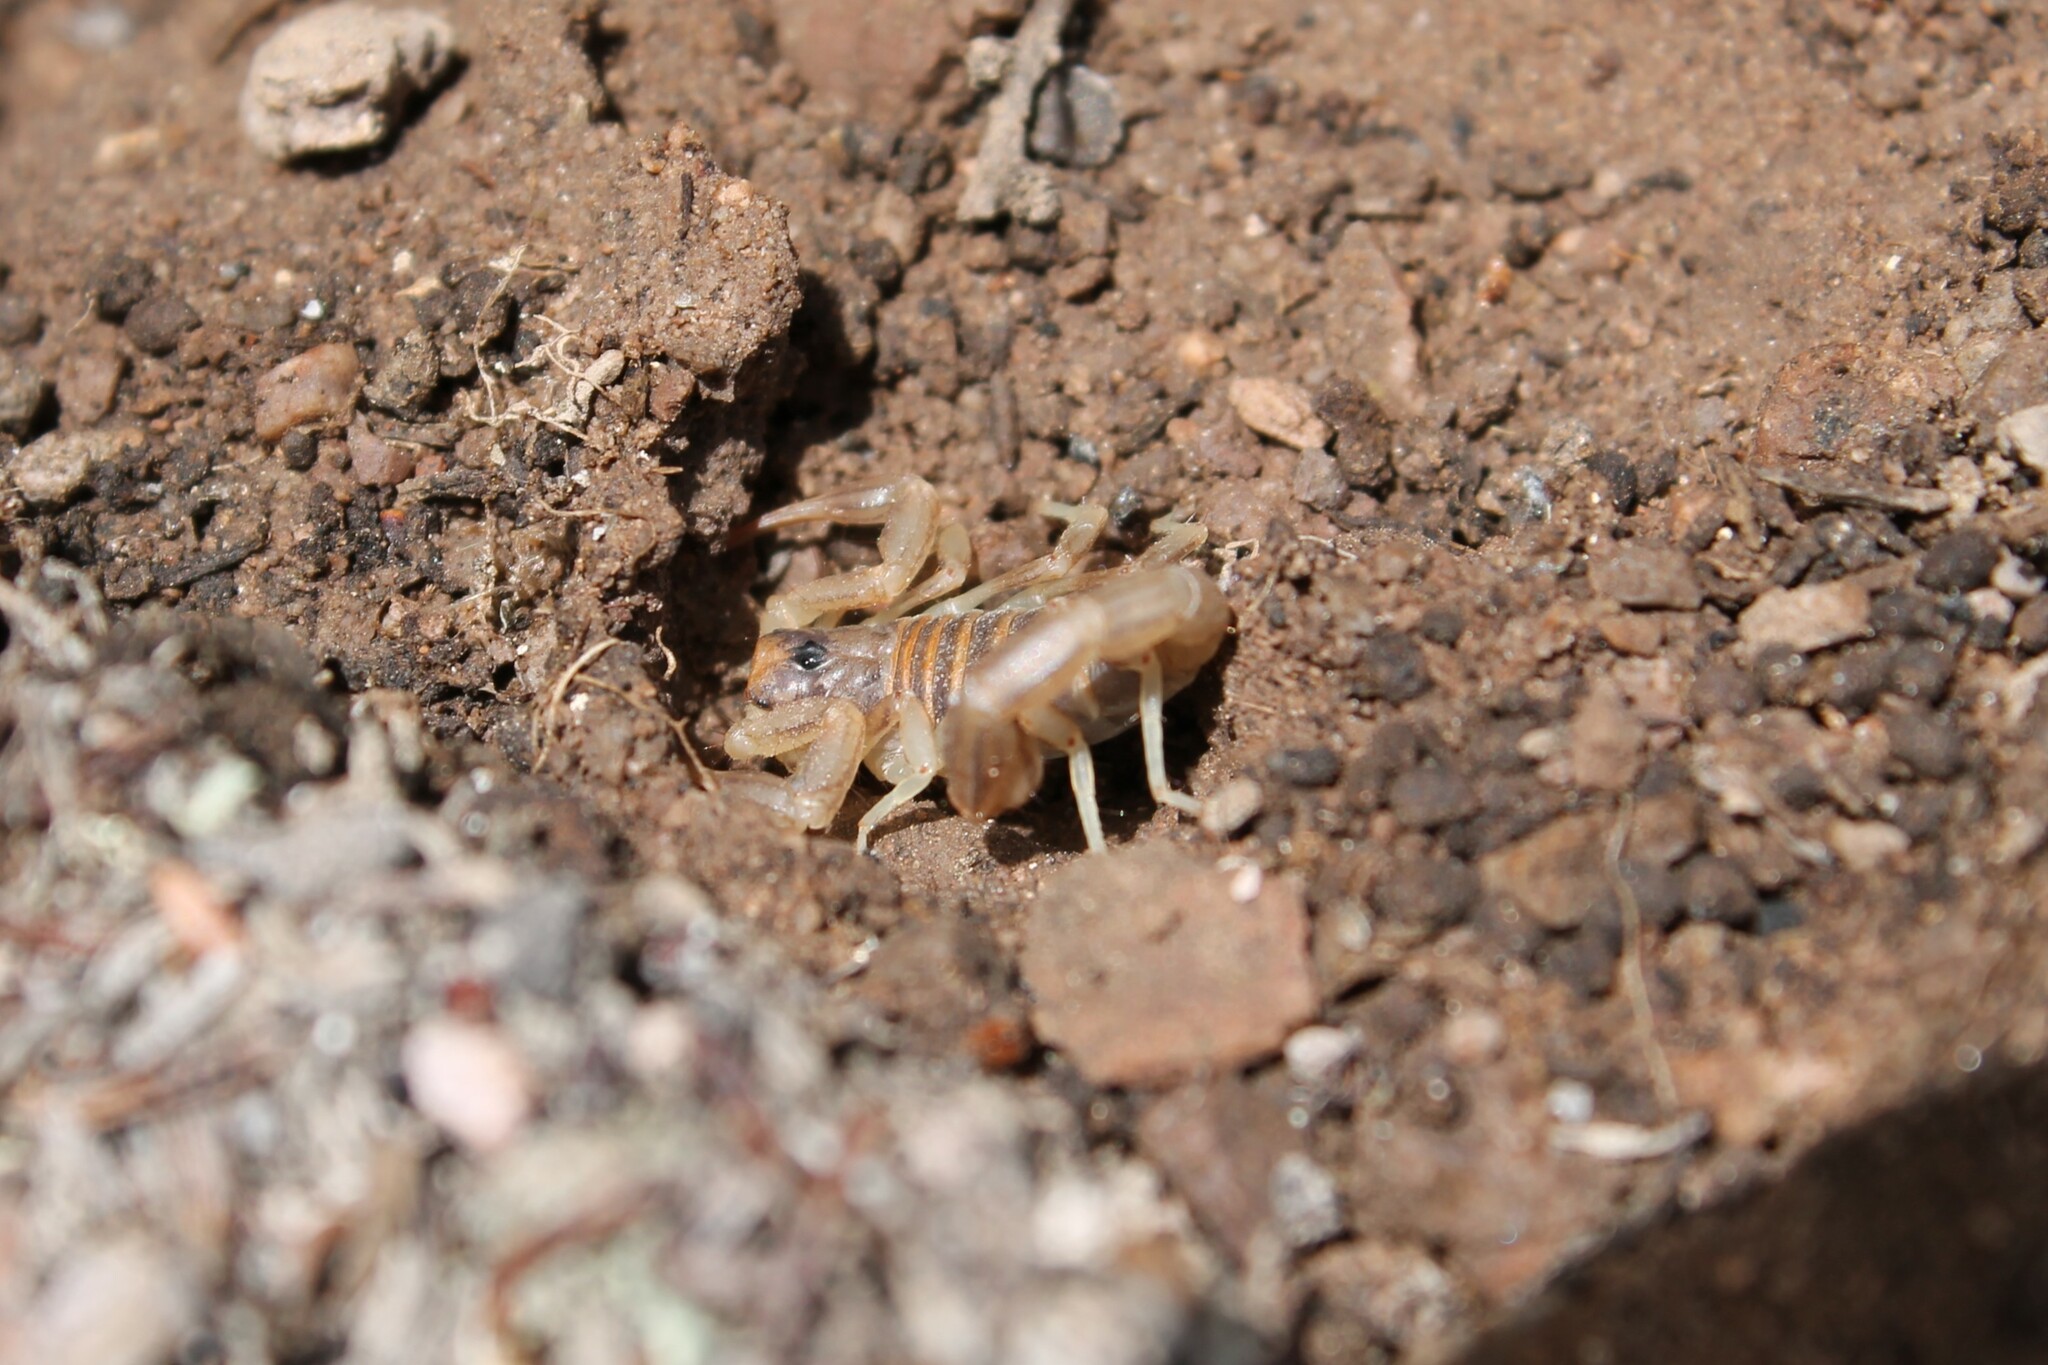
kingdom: Animalia
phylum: Arthropoda
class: Arachnida
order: Scorpiones
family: Vaejovidae
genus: Paruroctonus
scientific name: Paruroctonus variabilis
